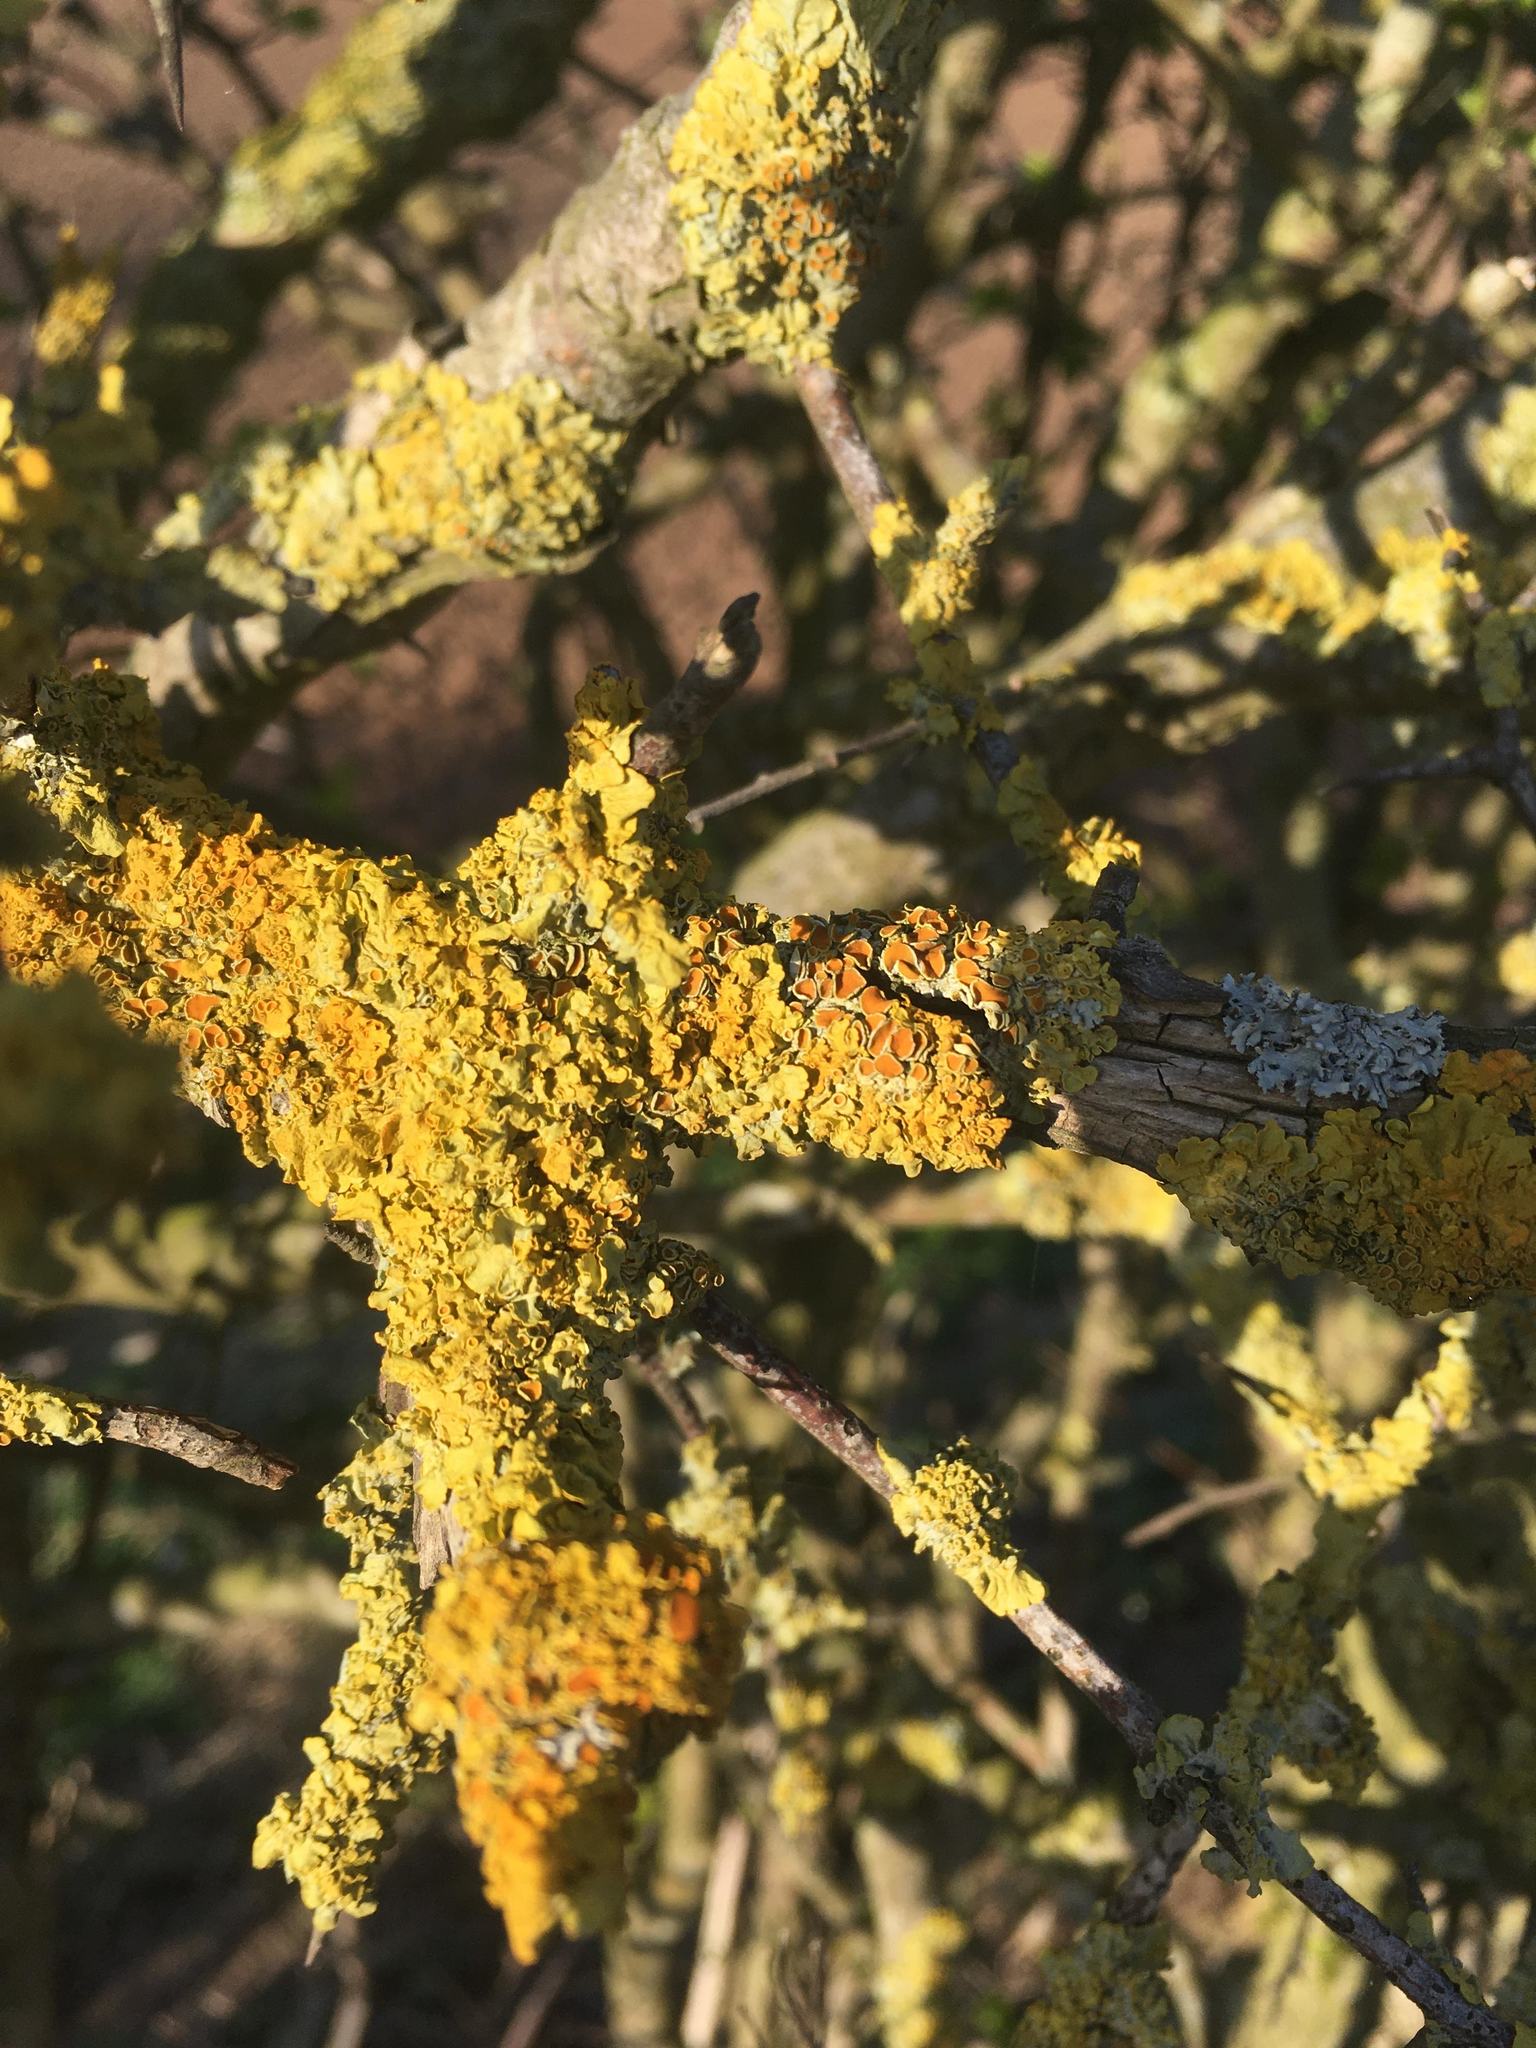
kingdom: Fungi
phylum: Ascomycota
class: Lecanoromycetes
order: Teloschistales
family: Teloschistaceae
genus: Xanthoria
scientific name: Xanthoria parietina
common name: Common orange lichen
